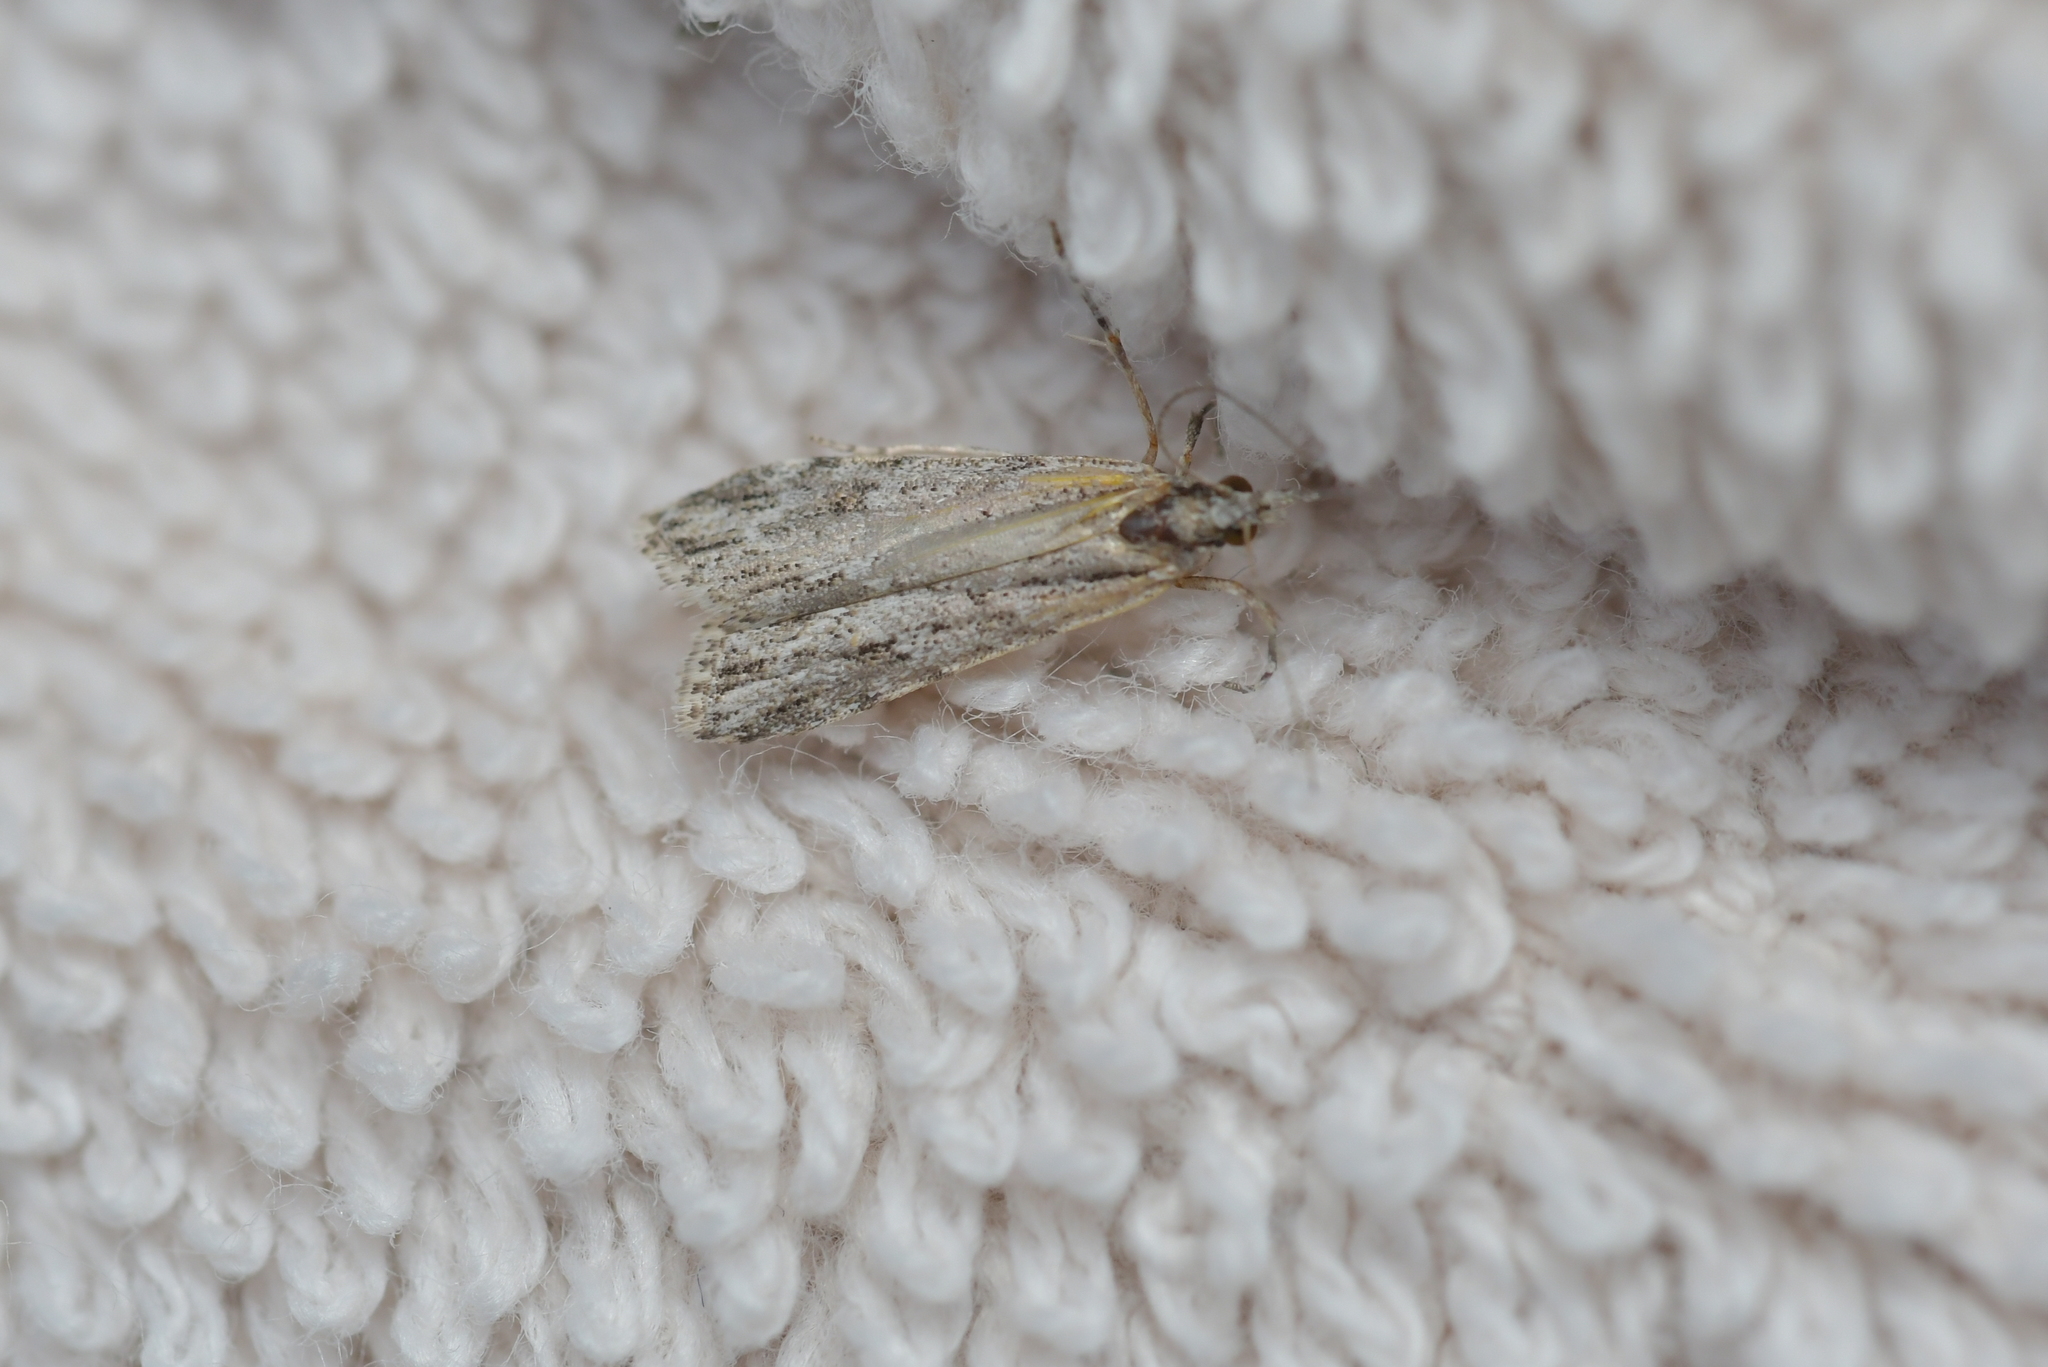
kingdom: Animalia
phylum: Arthropoda
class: Insecta
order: Lepidoptera
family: Crambidae
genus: Scoparia
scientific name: Scoparia chalicodes
